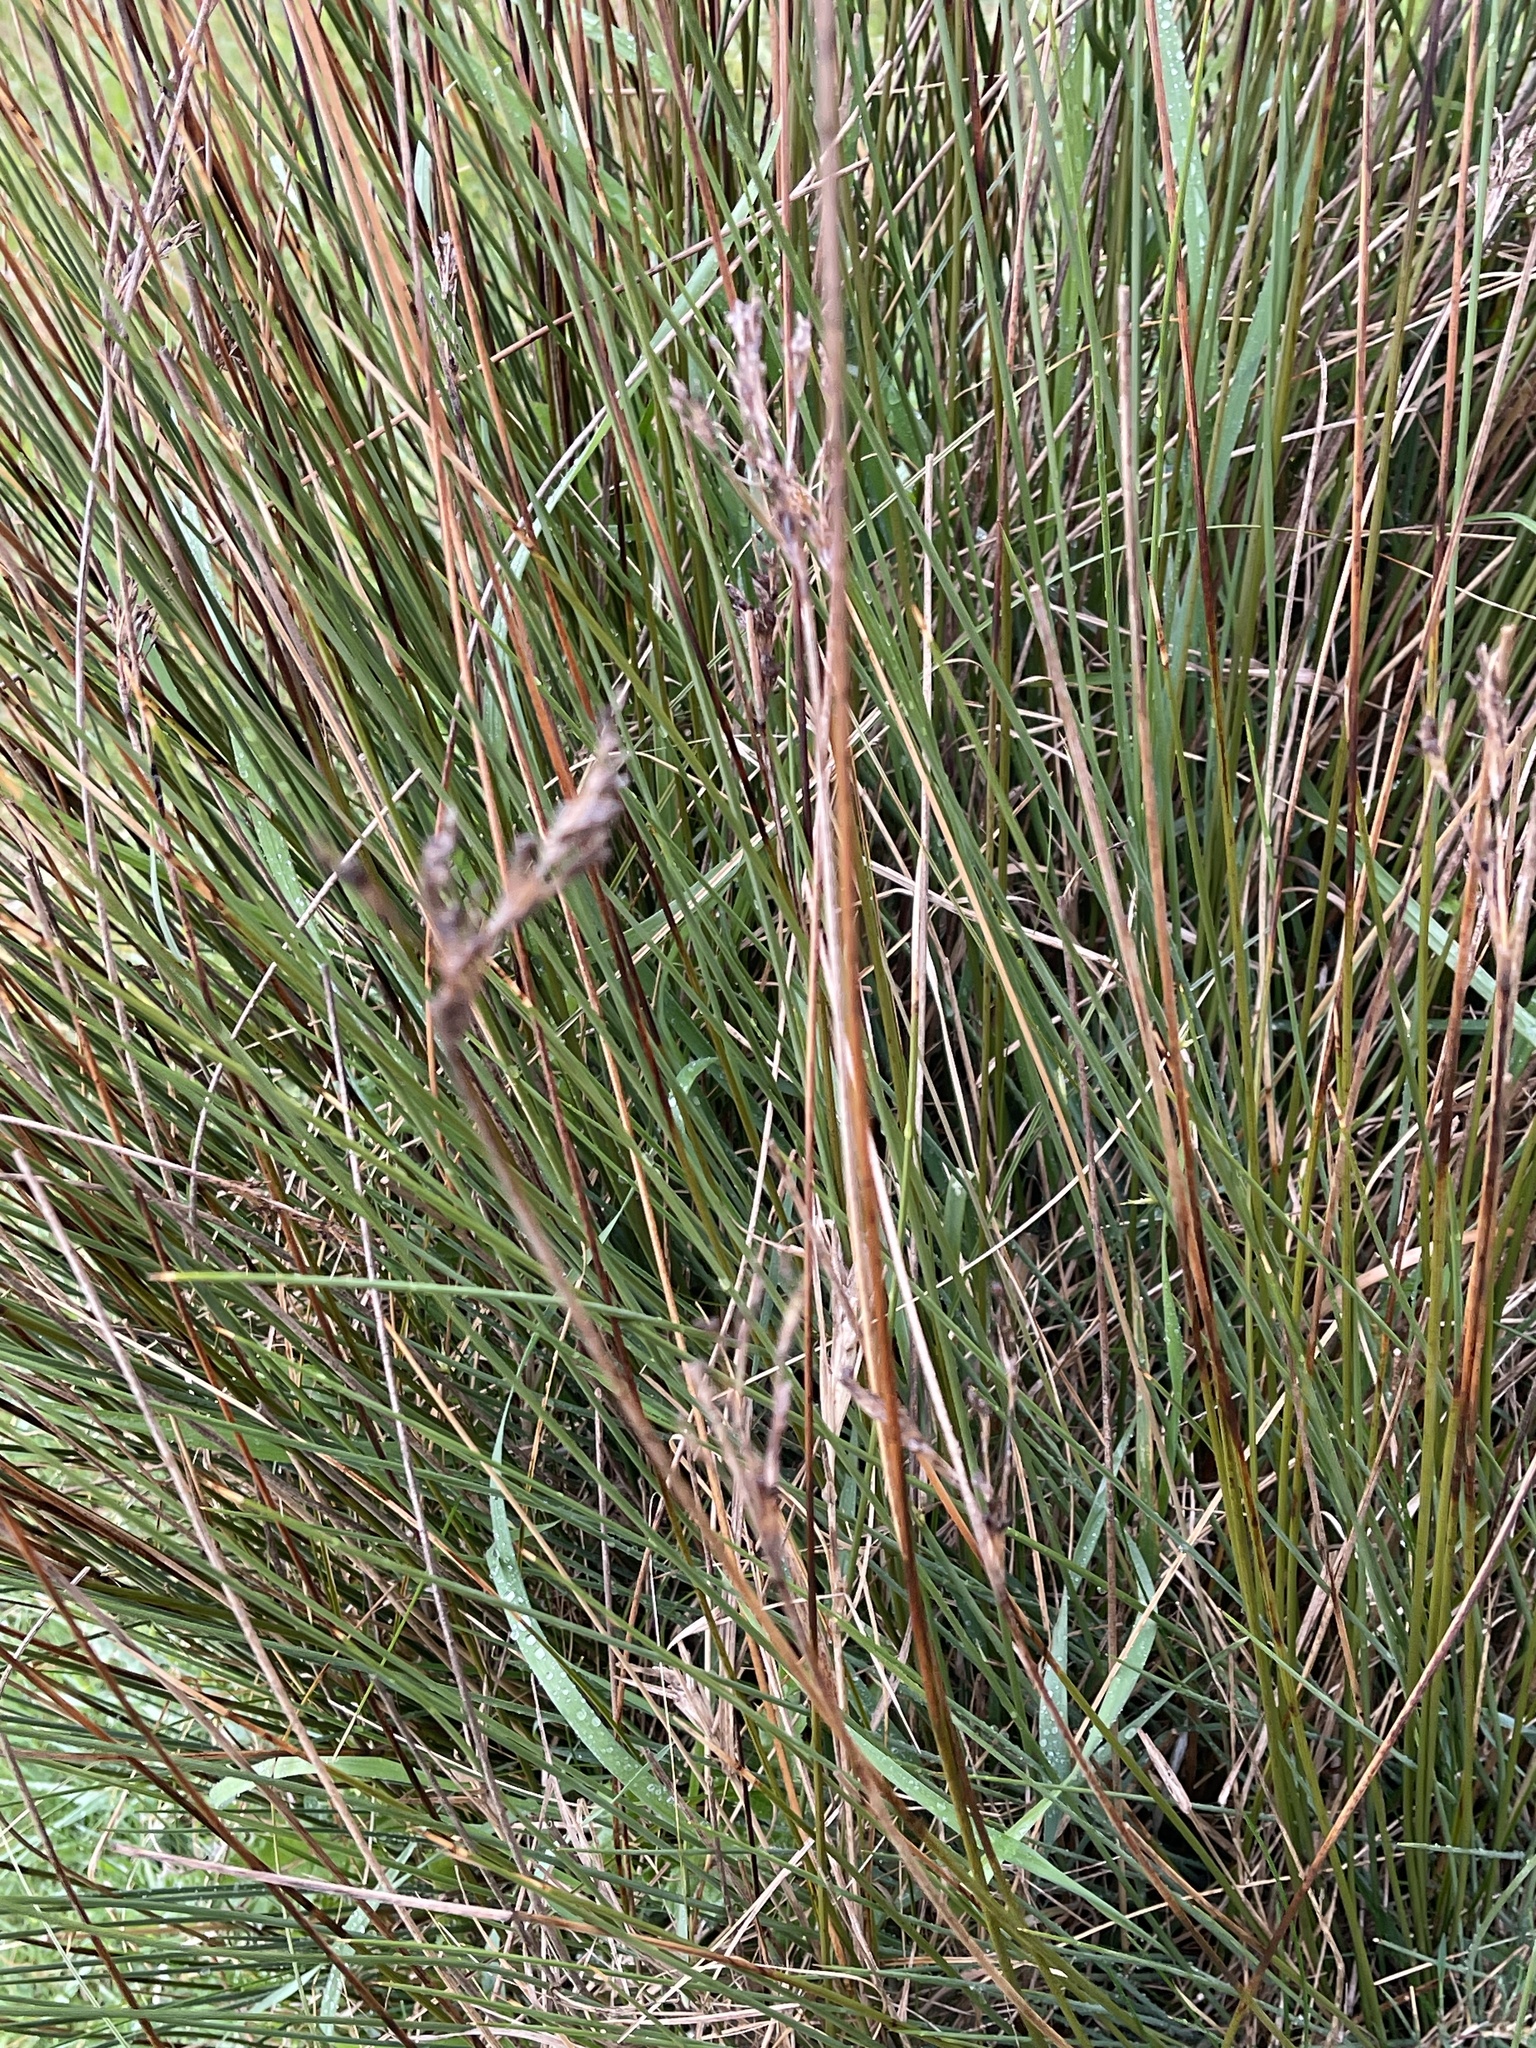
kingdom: Plantae
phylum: Tracheophyta
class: Liliopsida
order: Poales
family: Juncaceae
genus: Juncus
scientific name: Juncus inflexus
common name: Hard rush
